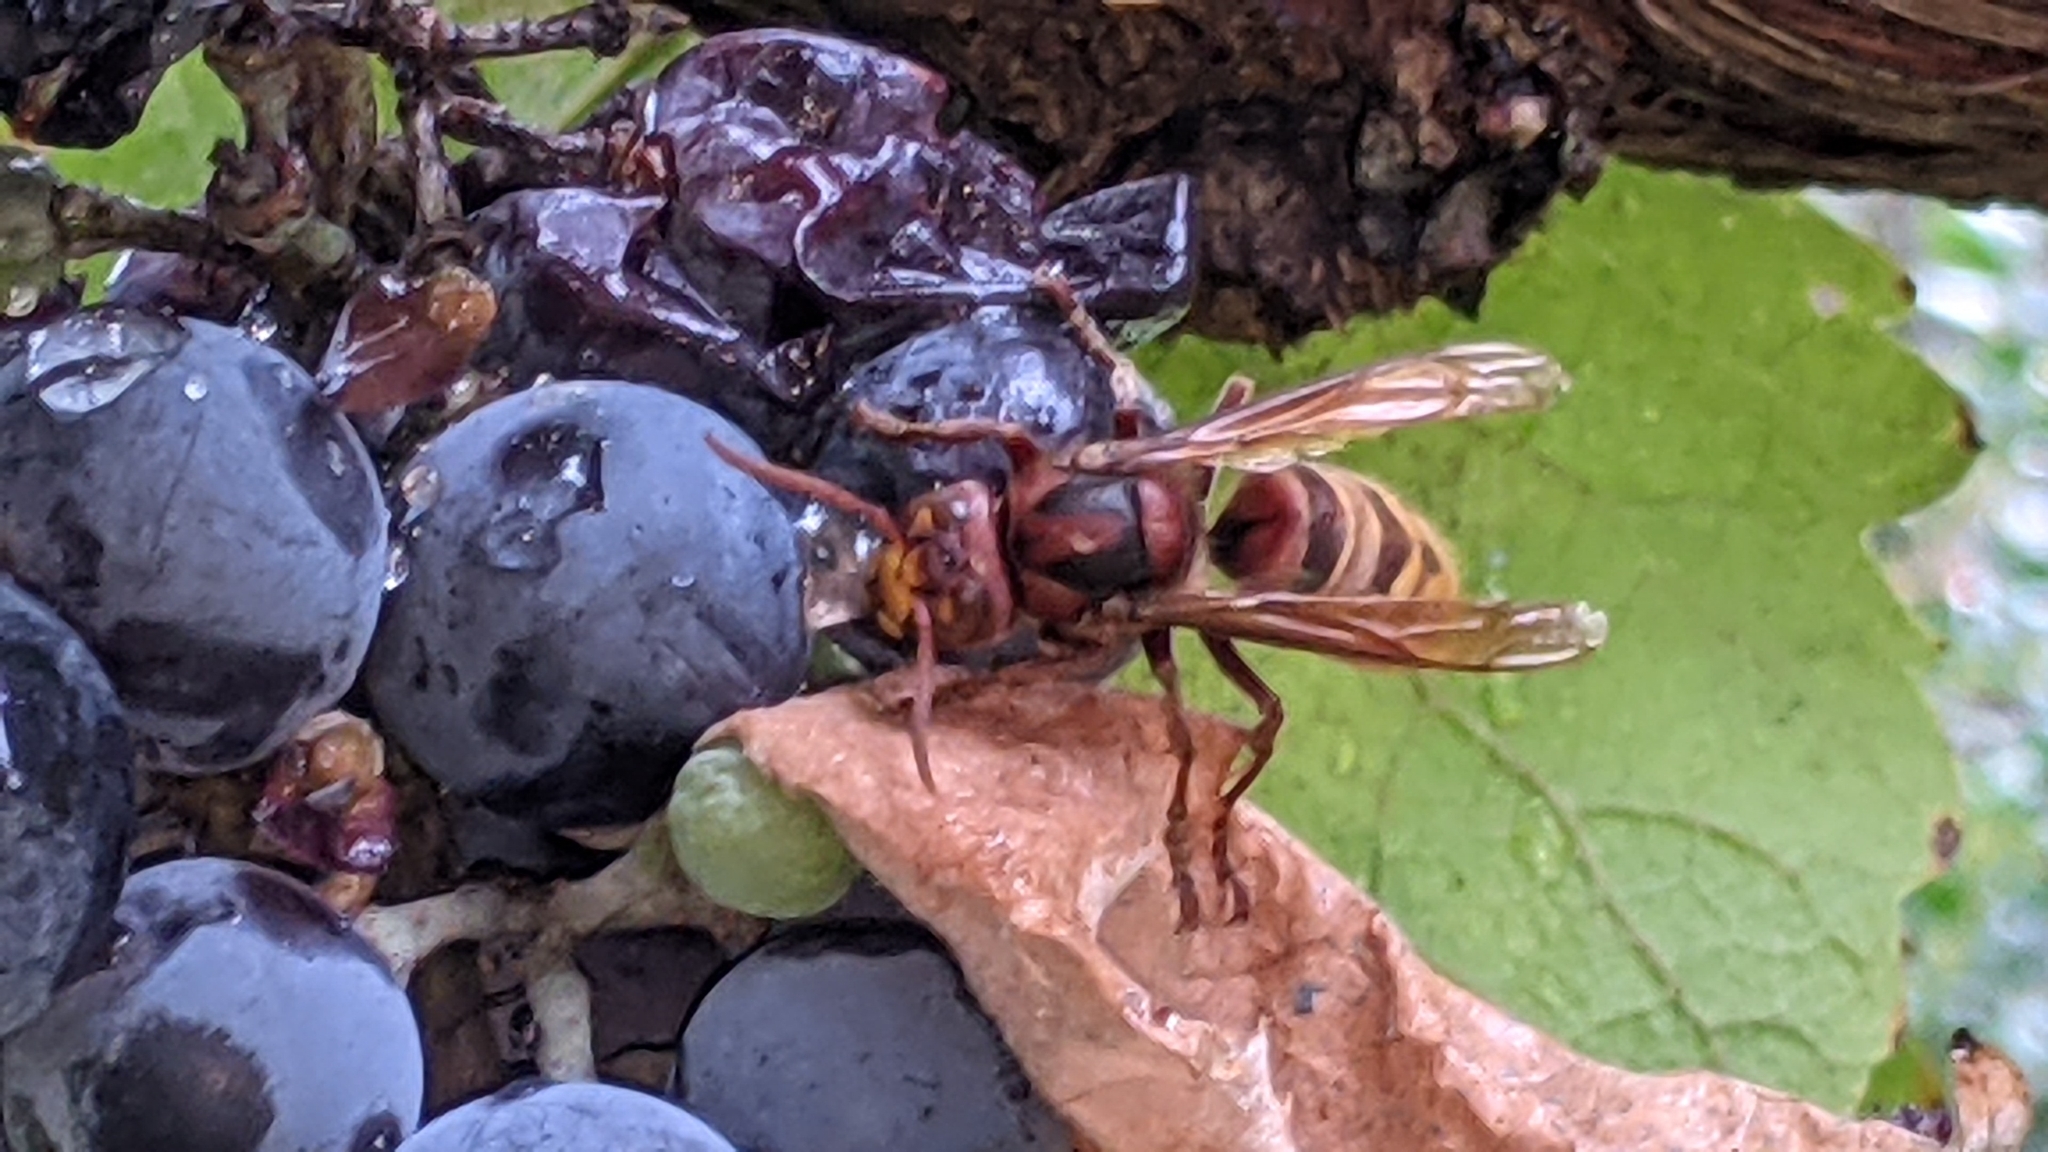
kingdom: Animalia
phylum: Arthropoda
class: Insecta
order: Hymenoptera
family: Vespidae
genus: Vespa
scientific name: Vespa crabro
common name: Hornet
